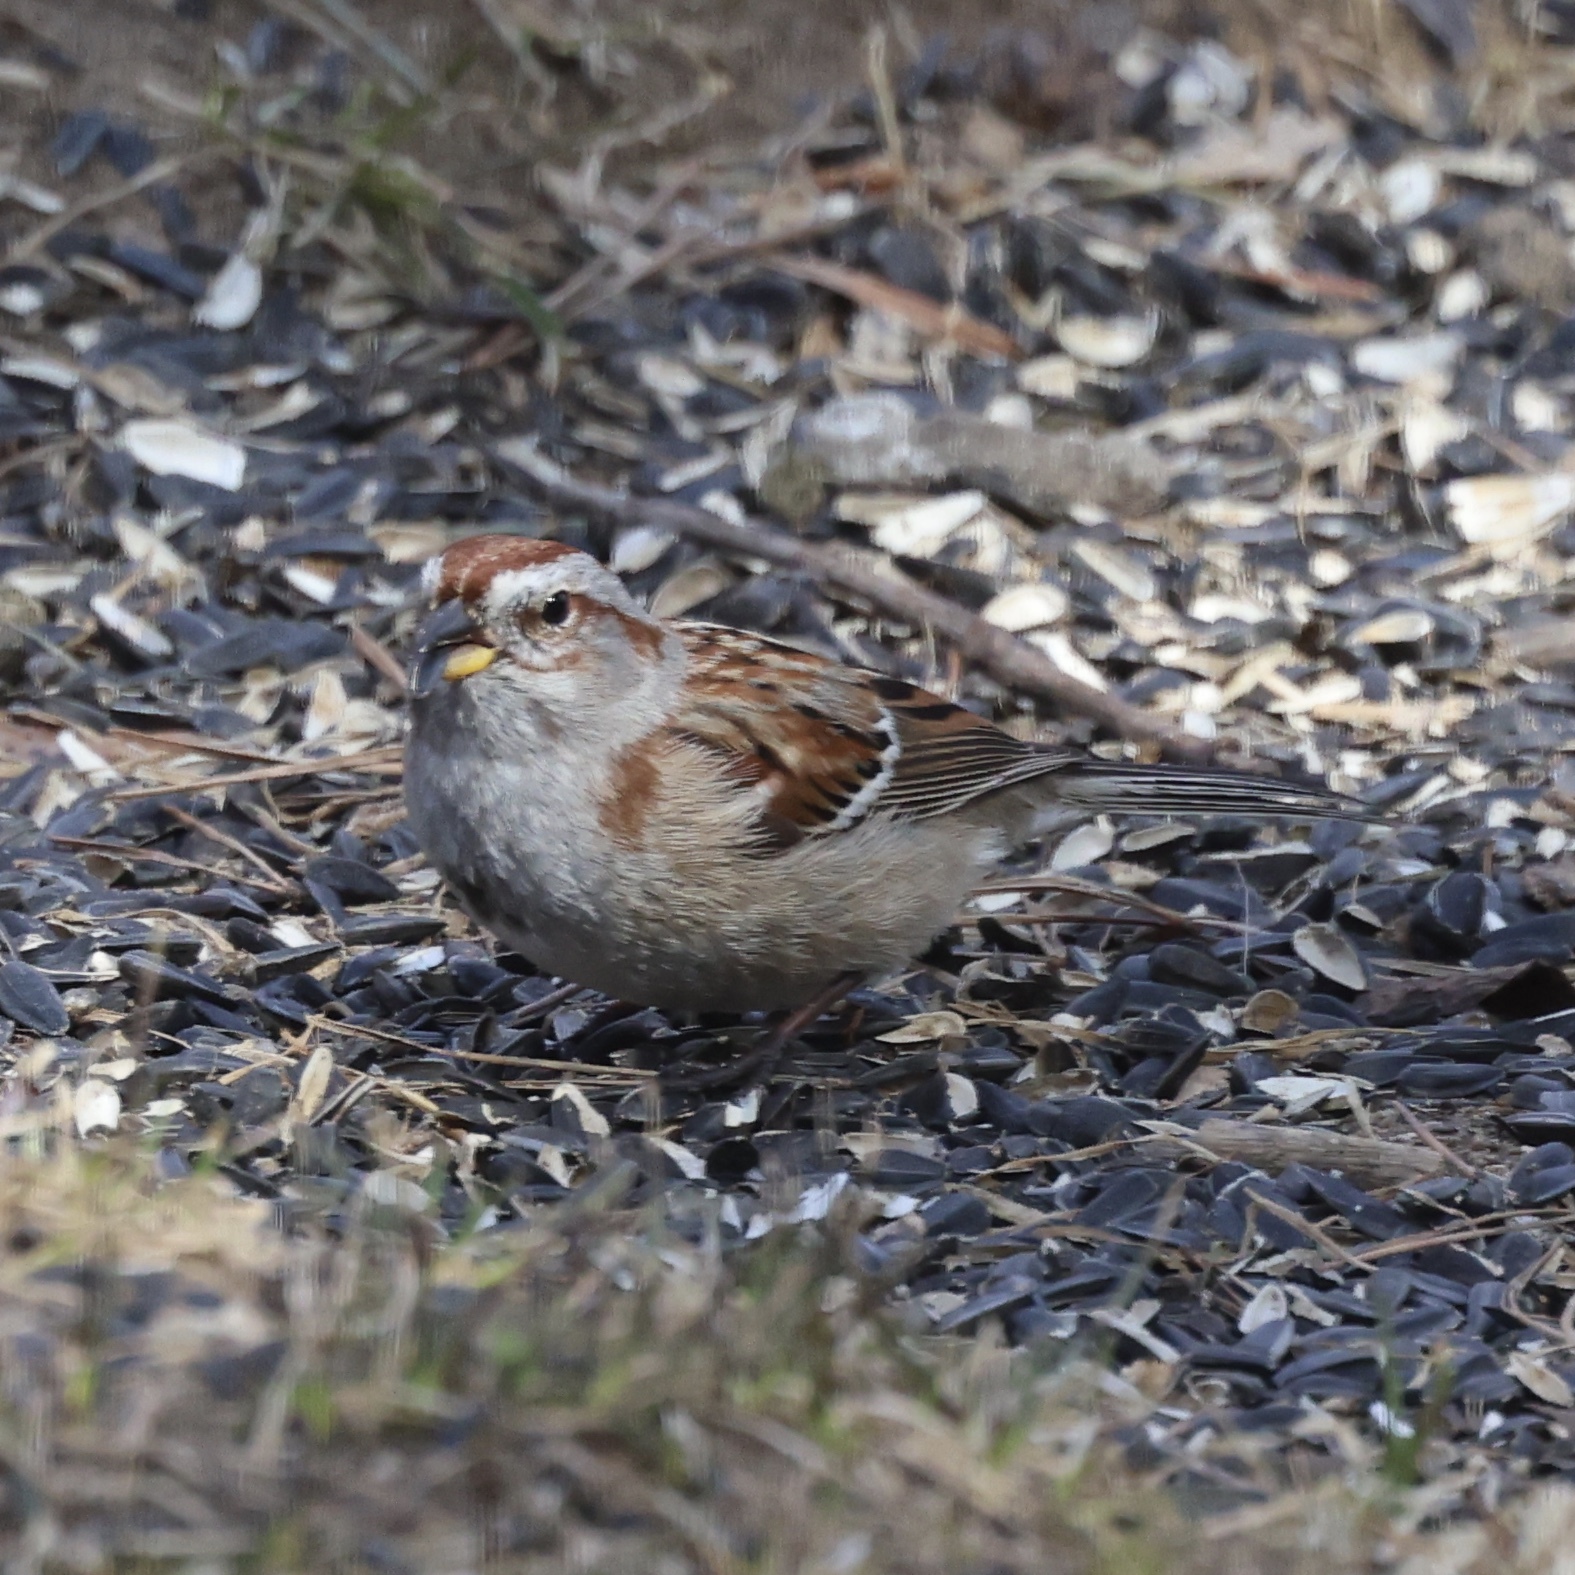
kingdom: Animalia
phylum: Chordata
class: Aves
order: Passeriformes
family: Passerellidae
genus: Spizelloides
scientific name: Spizelloides arborea
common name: American tree sparrow
